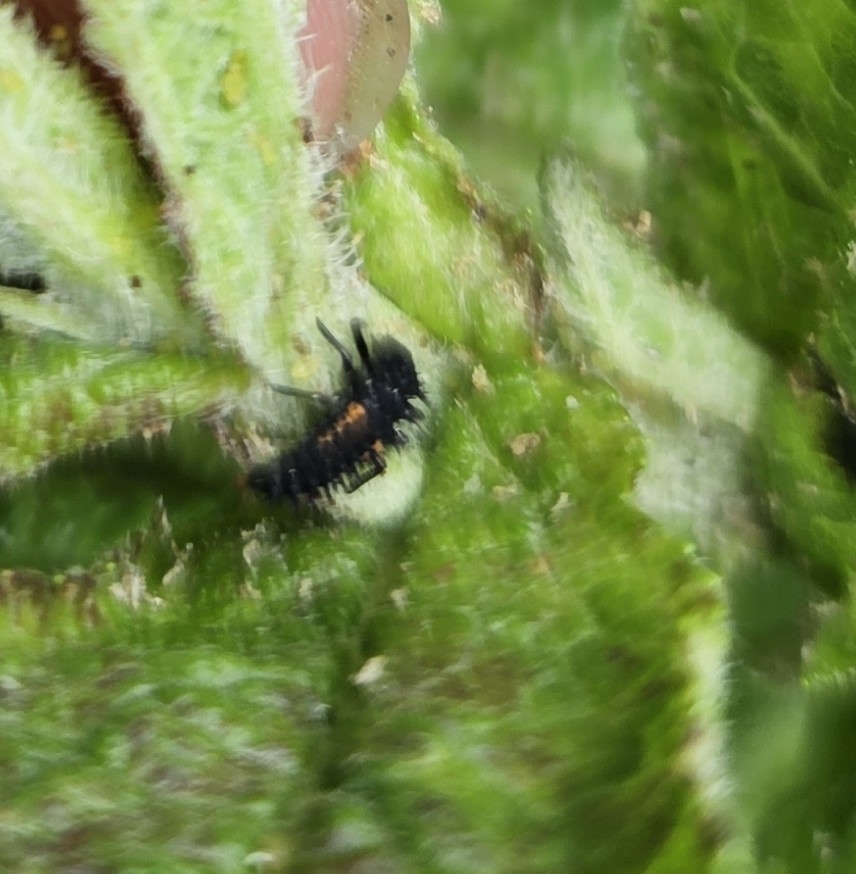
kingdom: Animalia
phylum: Arthropoda
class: Insecta
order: Coleoptera
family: Coccinellidae
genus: Harmonia
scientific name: Harmonia axyridis
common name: Harlequin ladybird
